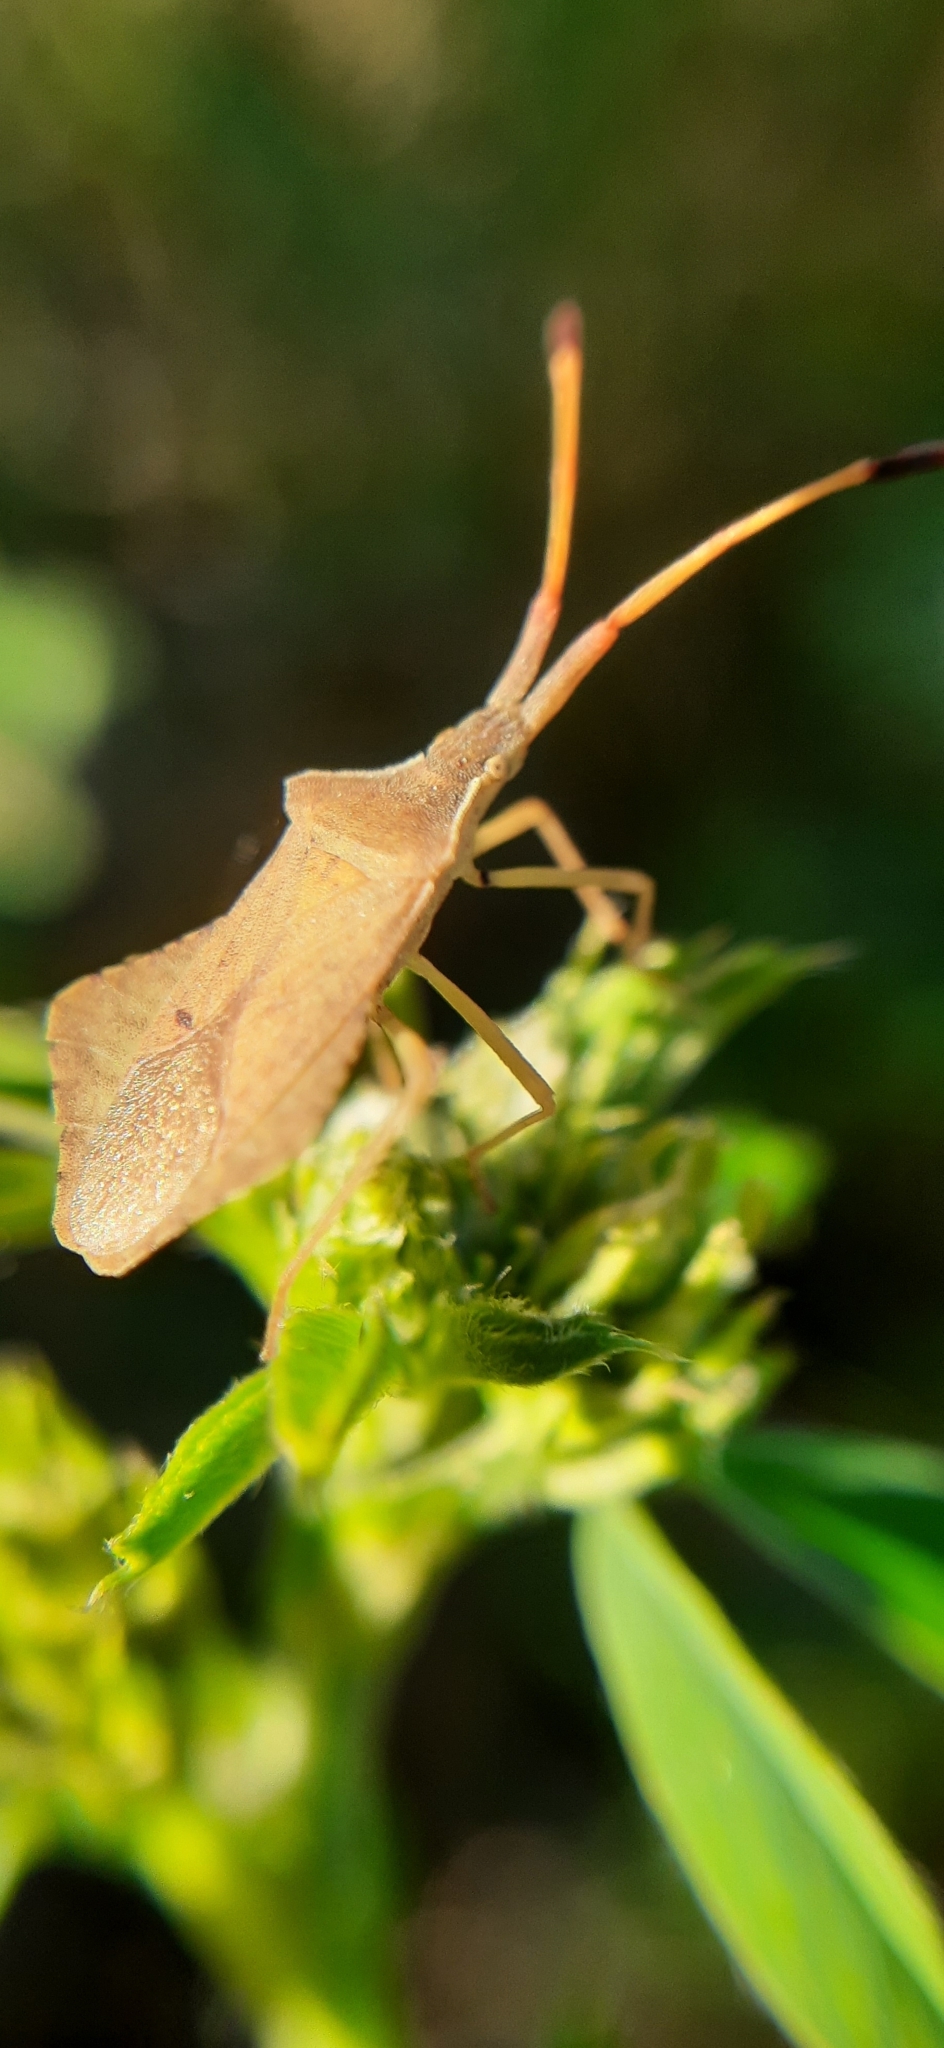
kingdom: Animalia
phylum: Arthropoda
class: Insecta
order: Hemiptera
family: Coreidae
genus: Syromastus
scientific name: Syromastus rhombeus
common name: Rhombic leatherbug
